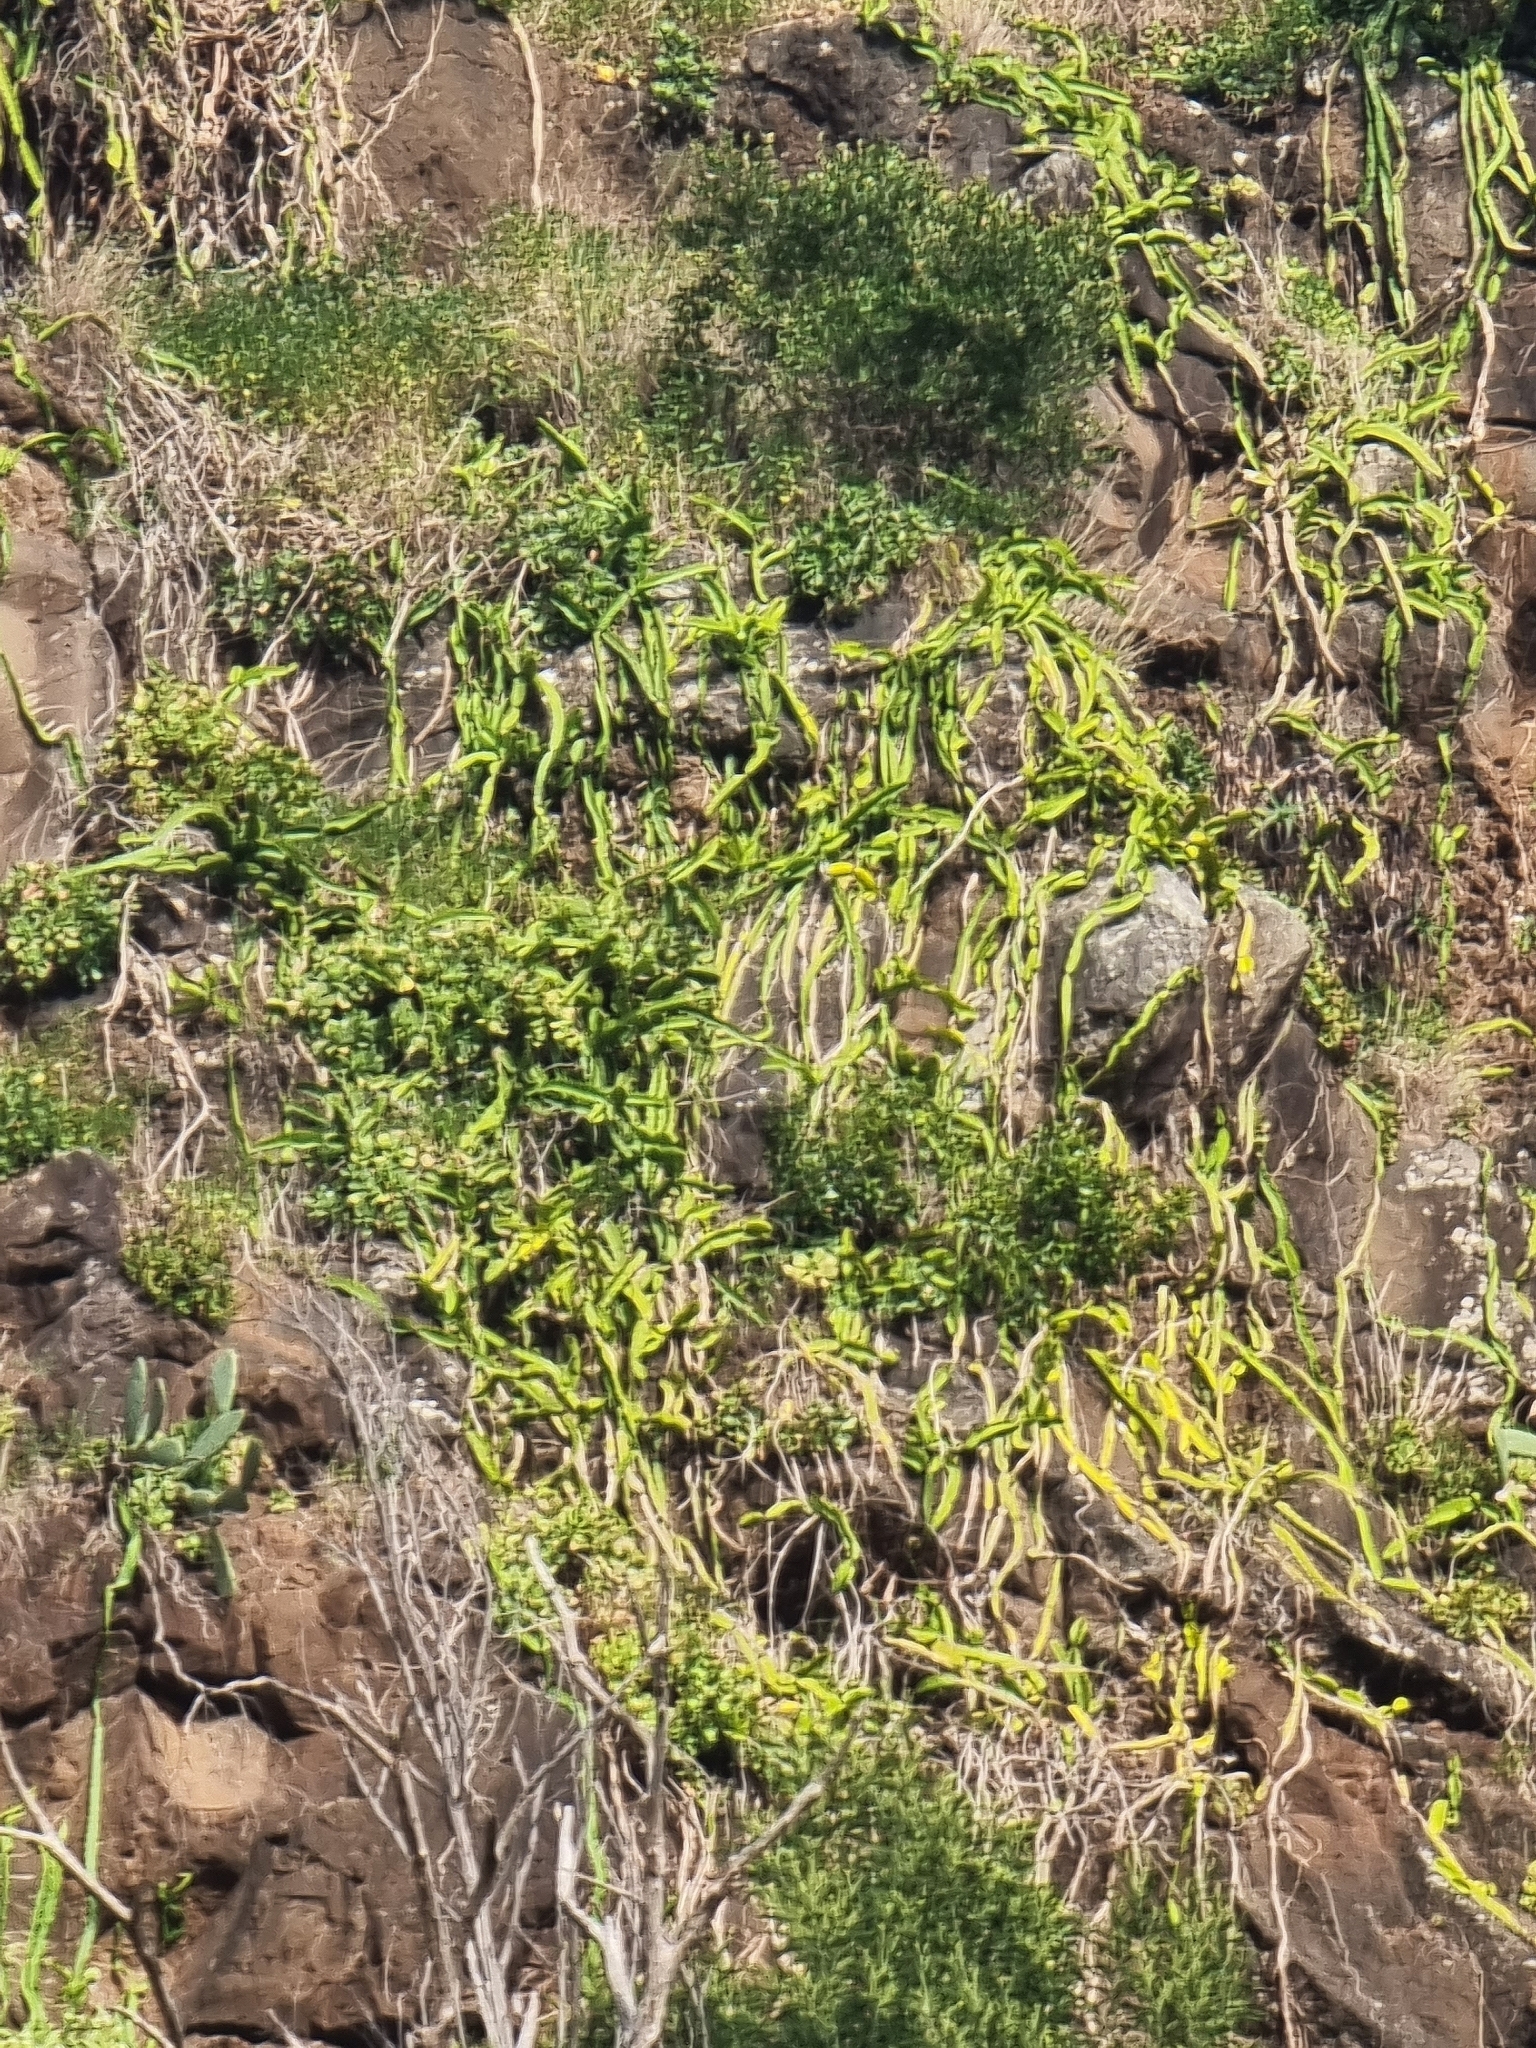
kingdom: Plantae
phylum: Tracheophyta
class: Magnoliopsida
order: Caryophyllales
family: Cactaceae
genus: Selenicereus
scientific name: Selenicereus undatus
